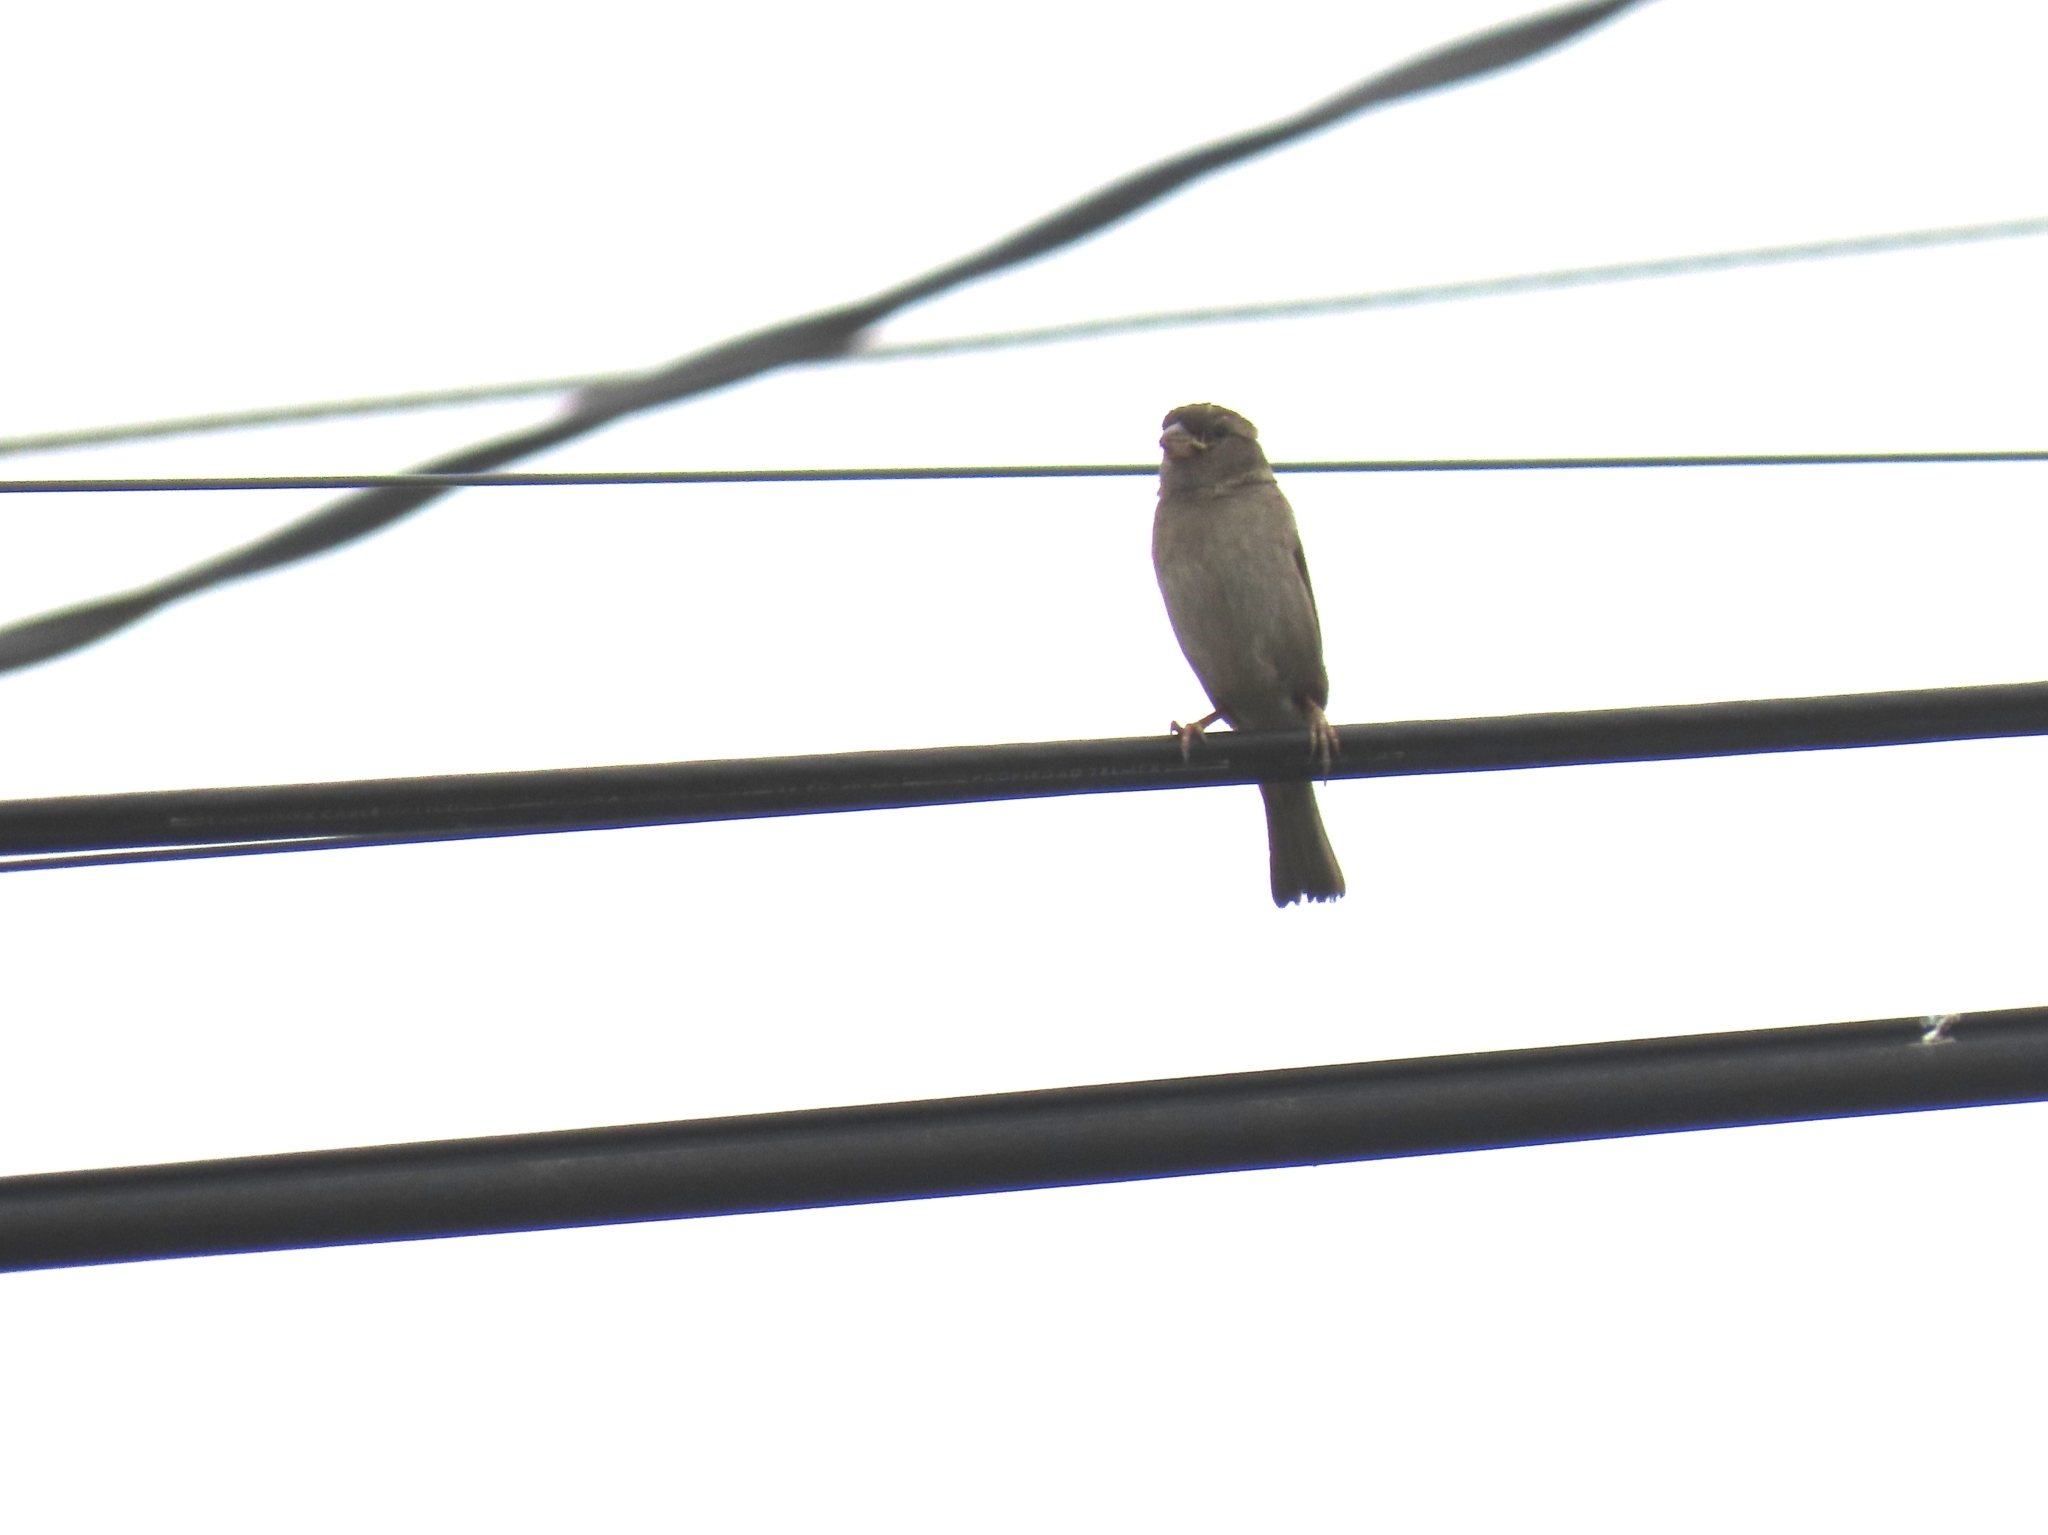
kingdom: Animalia
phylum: Chordata
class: Aves
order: Passeriformes
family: Passeridae
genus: Passer
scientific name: Passer domesticus
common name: House sparrow
